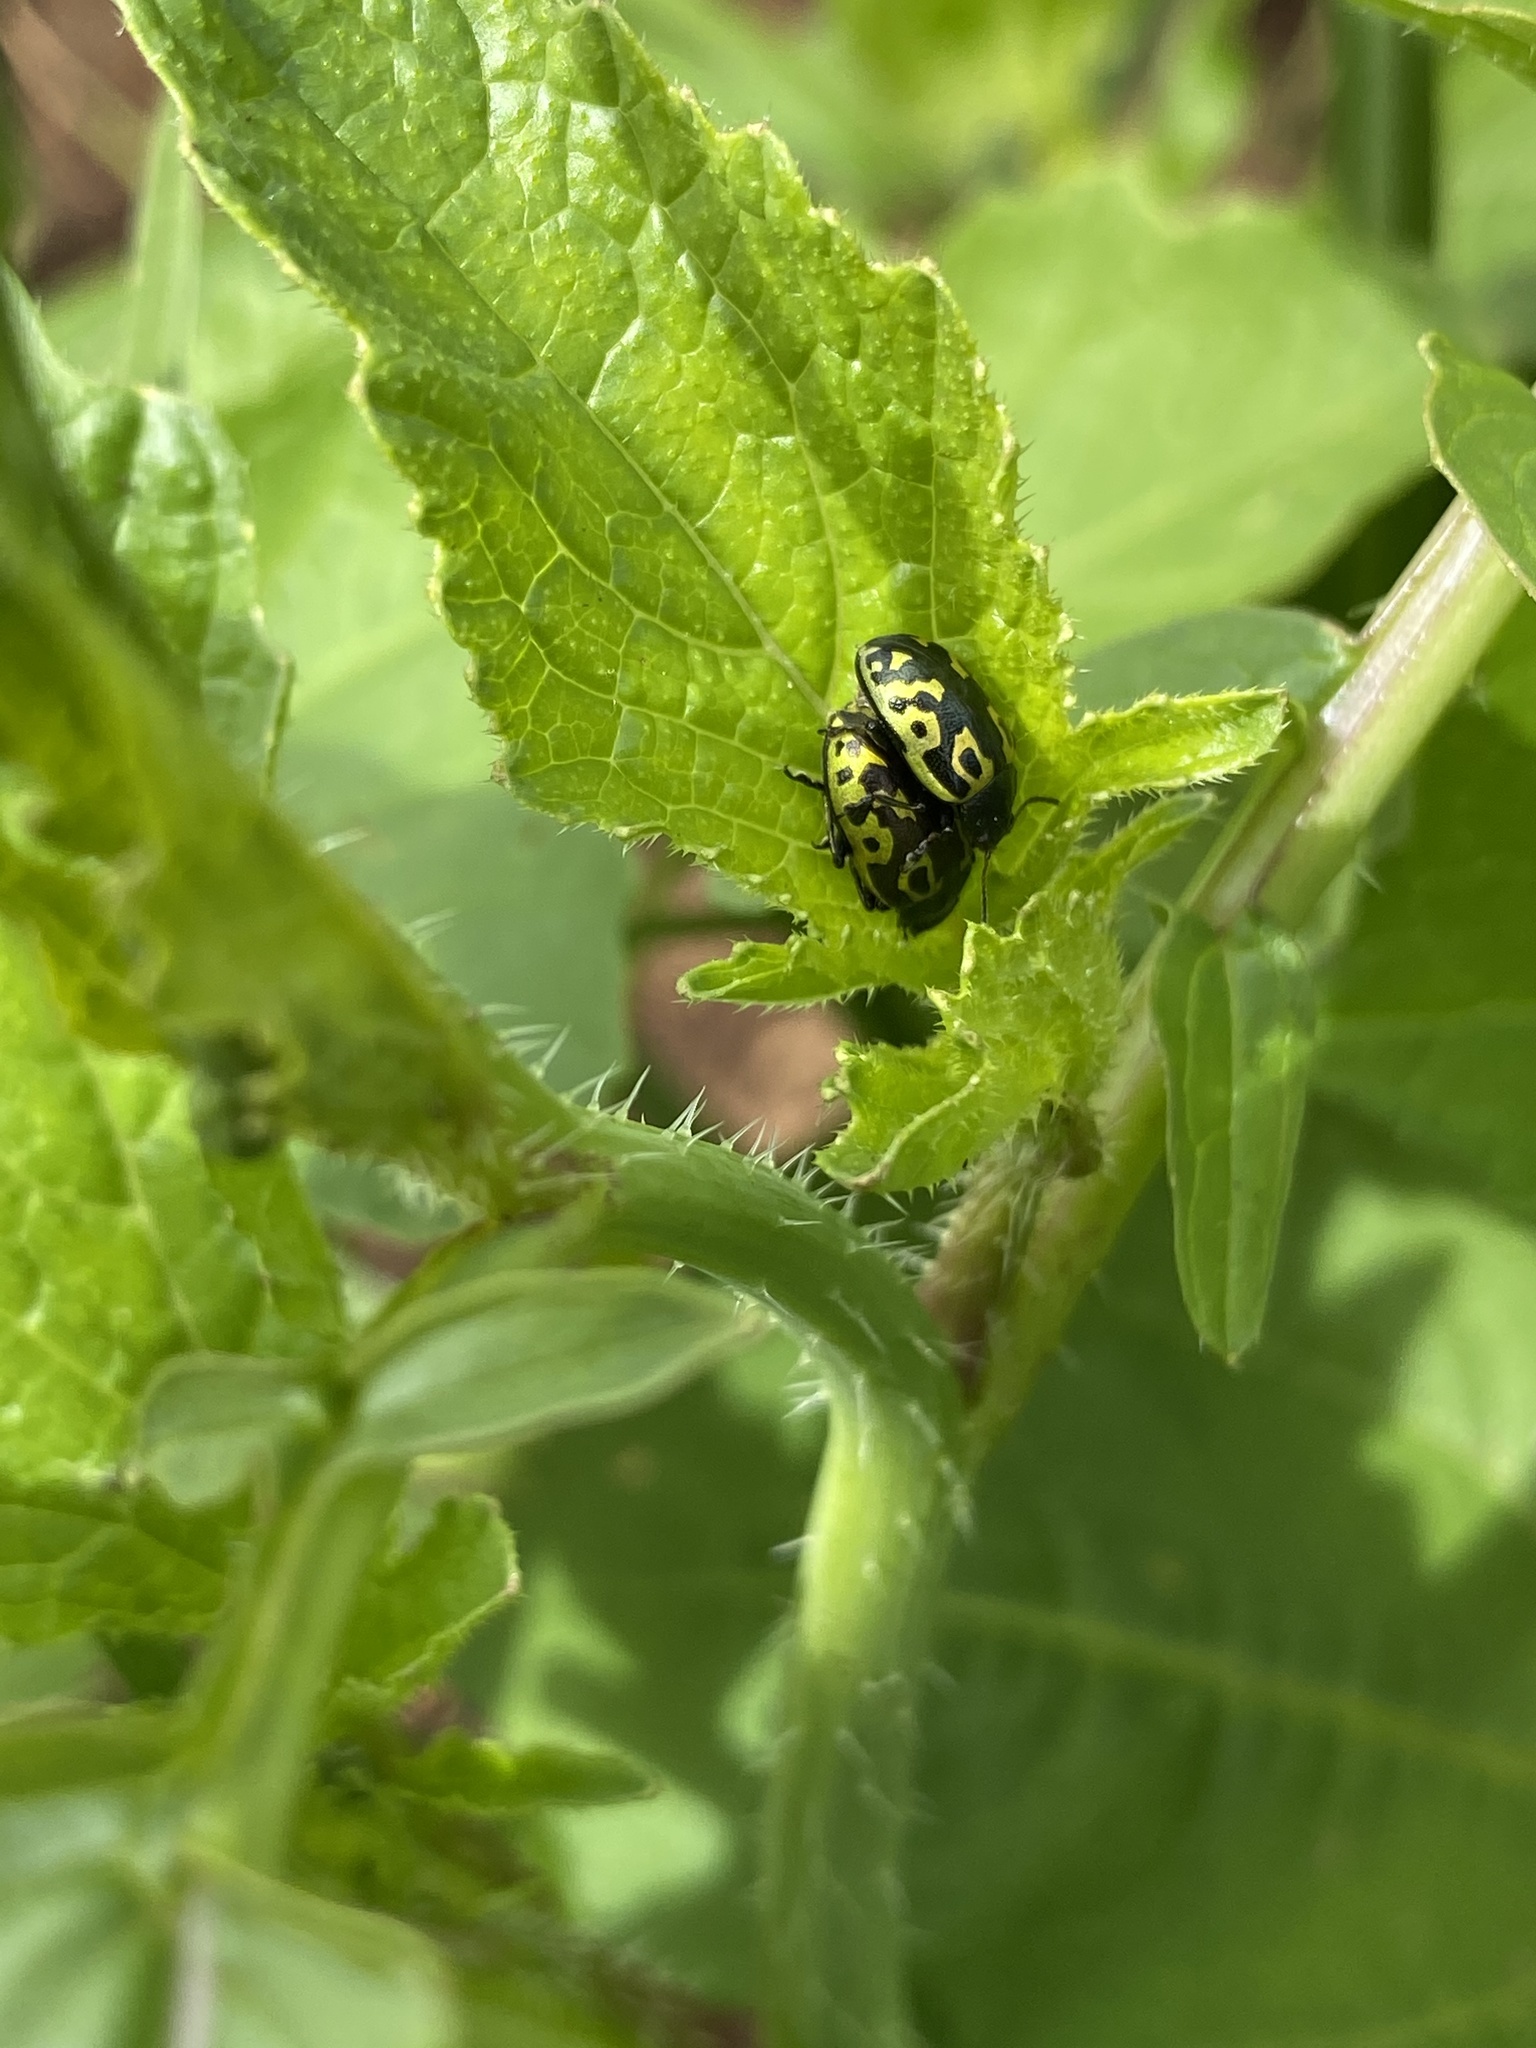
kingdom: Animalia
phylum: Arthropoda
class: Insecta
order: Coleoptera
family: Chrysomelidae
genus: Calligrapha
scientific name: Calligrapha
